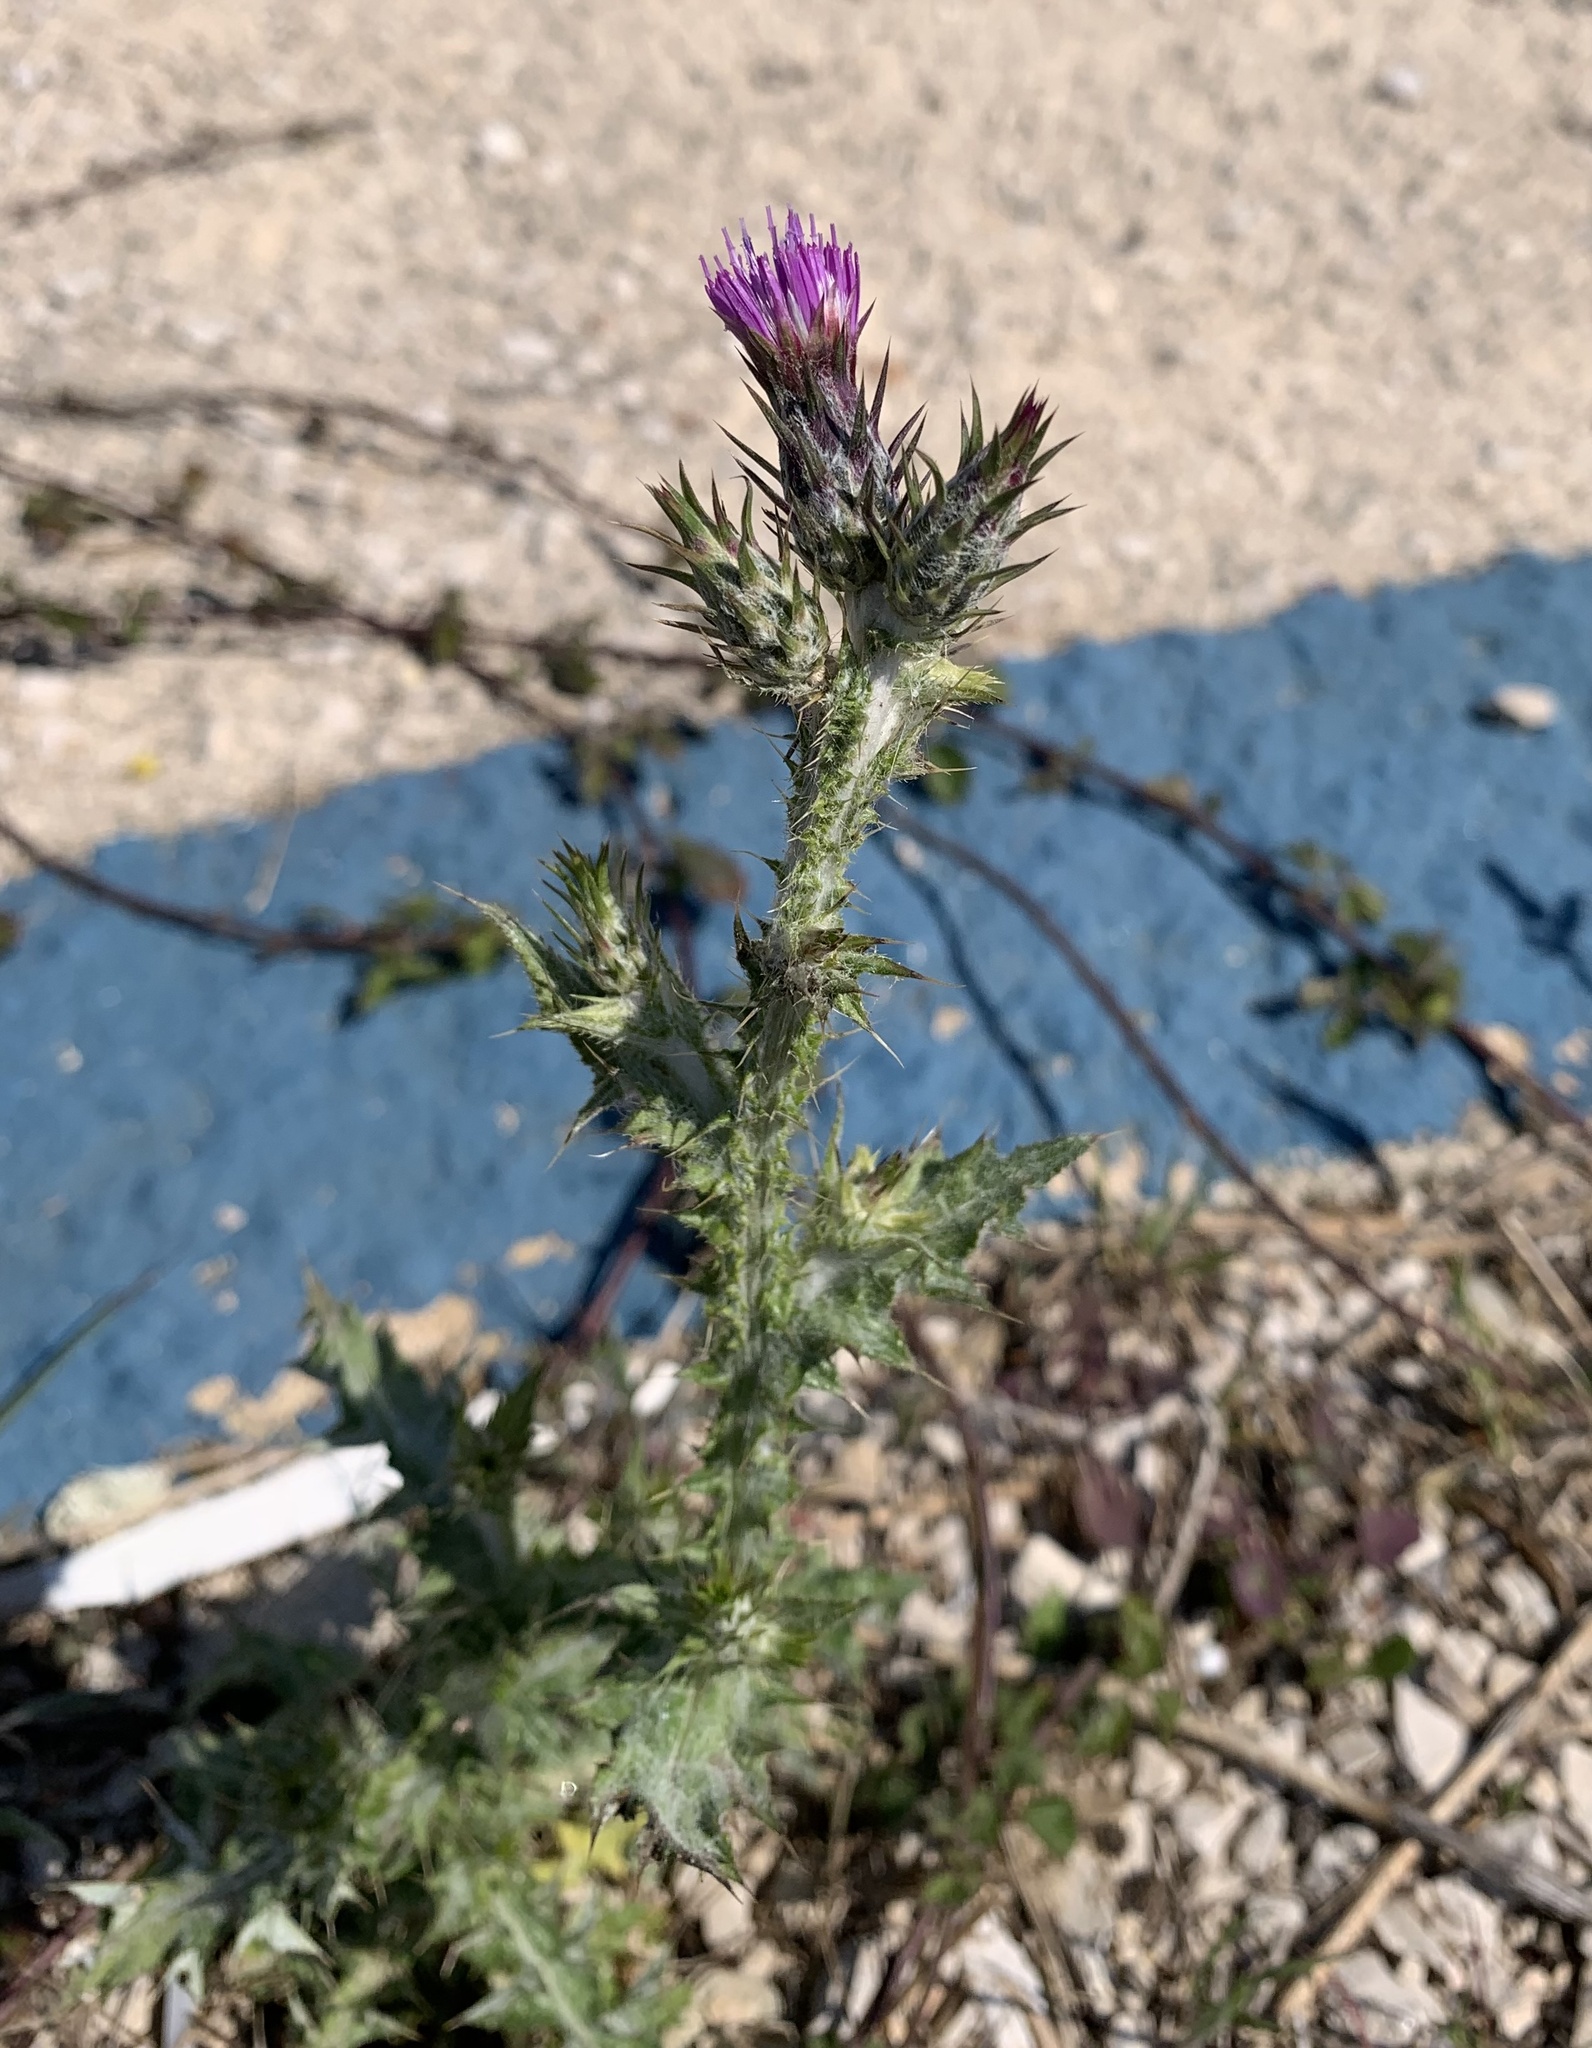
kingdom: Plantae
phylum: Tracheophyta
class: Magnoliopsida
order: Asterales
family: Asteraceae
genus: Carduus
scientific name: Carduus pycnocephalus
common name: Plymouth thistle
